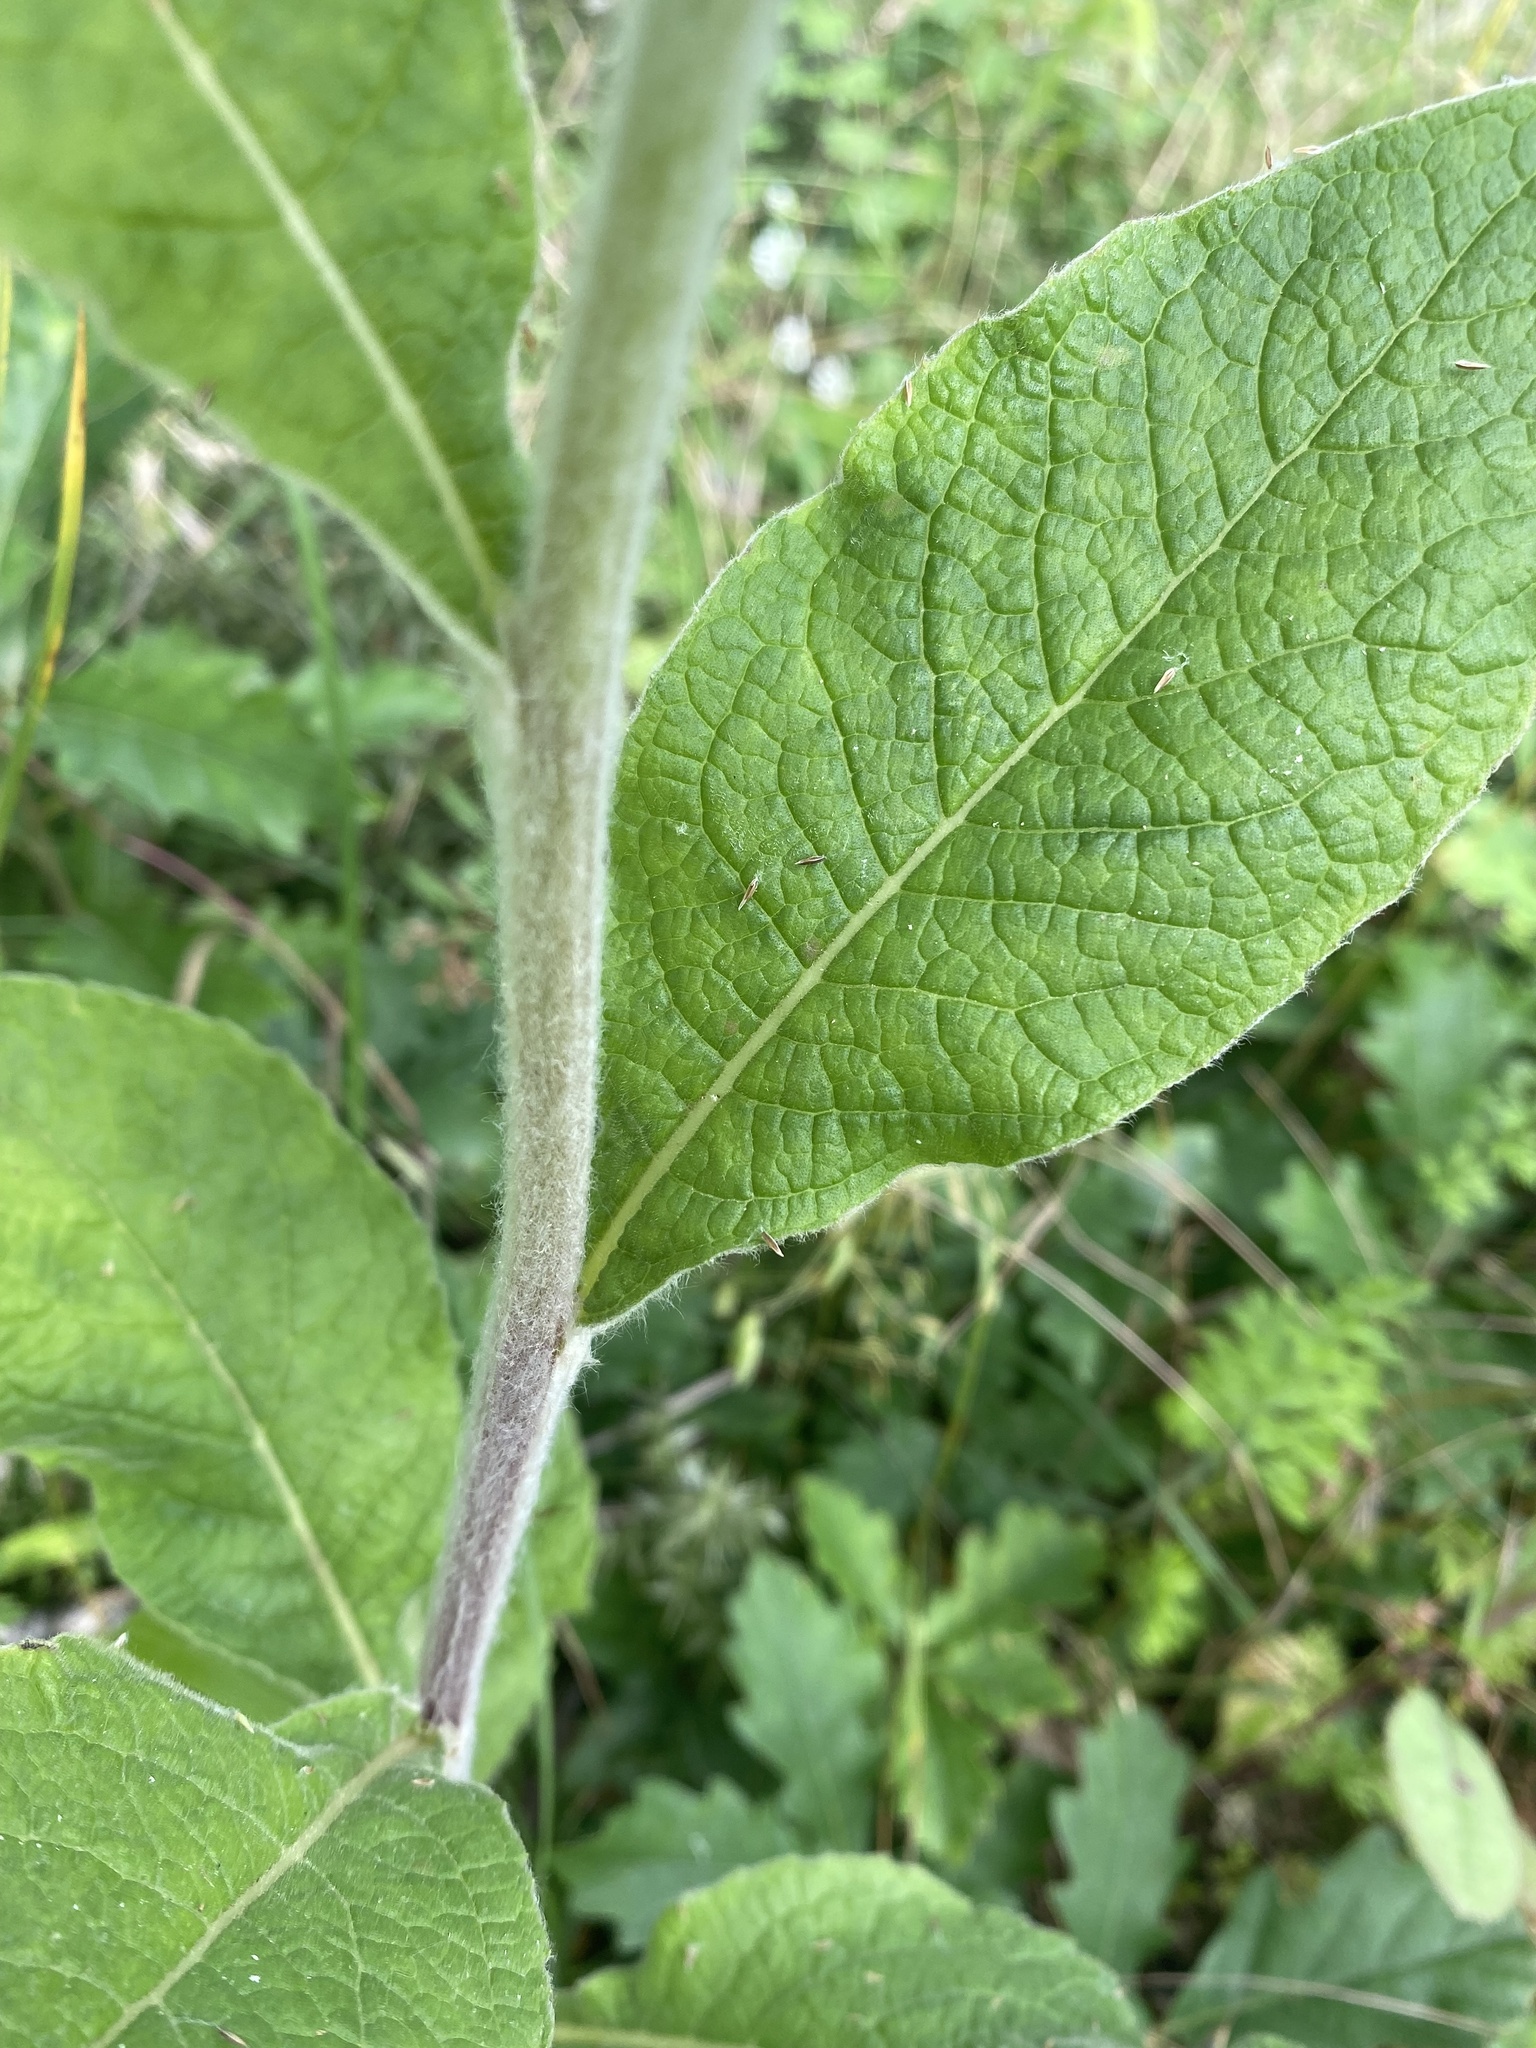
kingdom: Plantae
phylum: Tracheophyta
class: Magnoliopsida
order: Asterales
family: Asteraceae
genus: Pentanema
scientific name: Pentanema squarrosum
